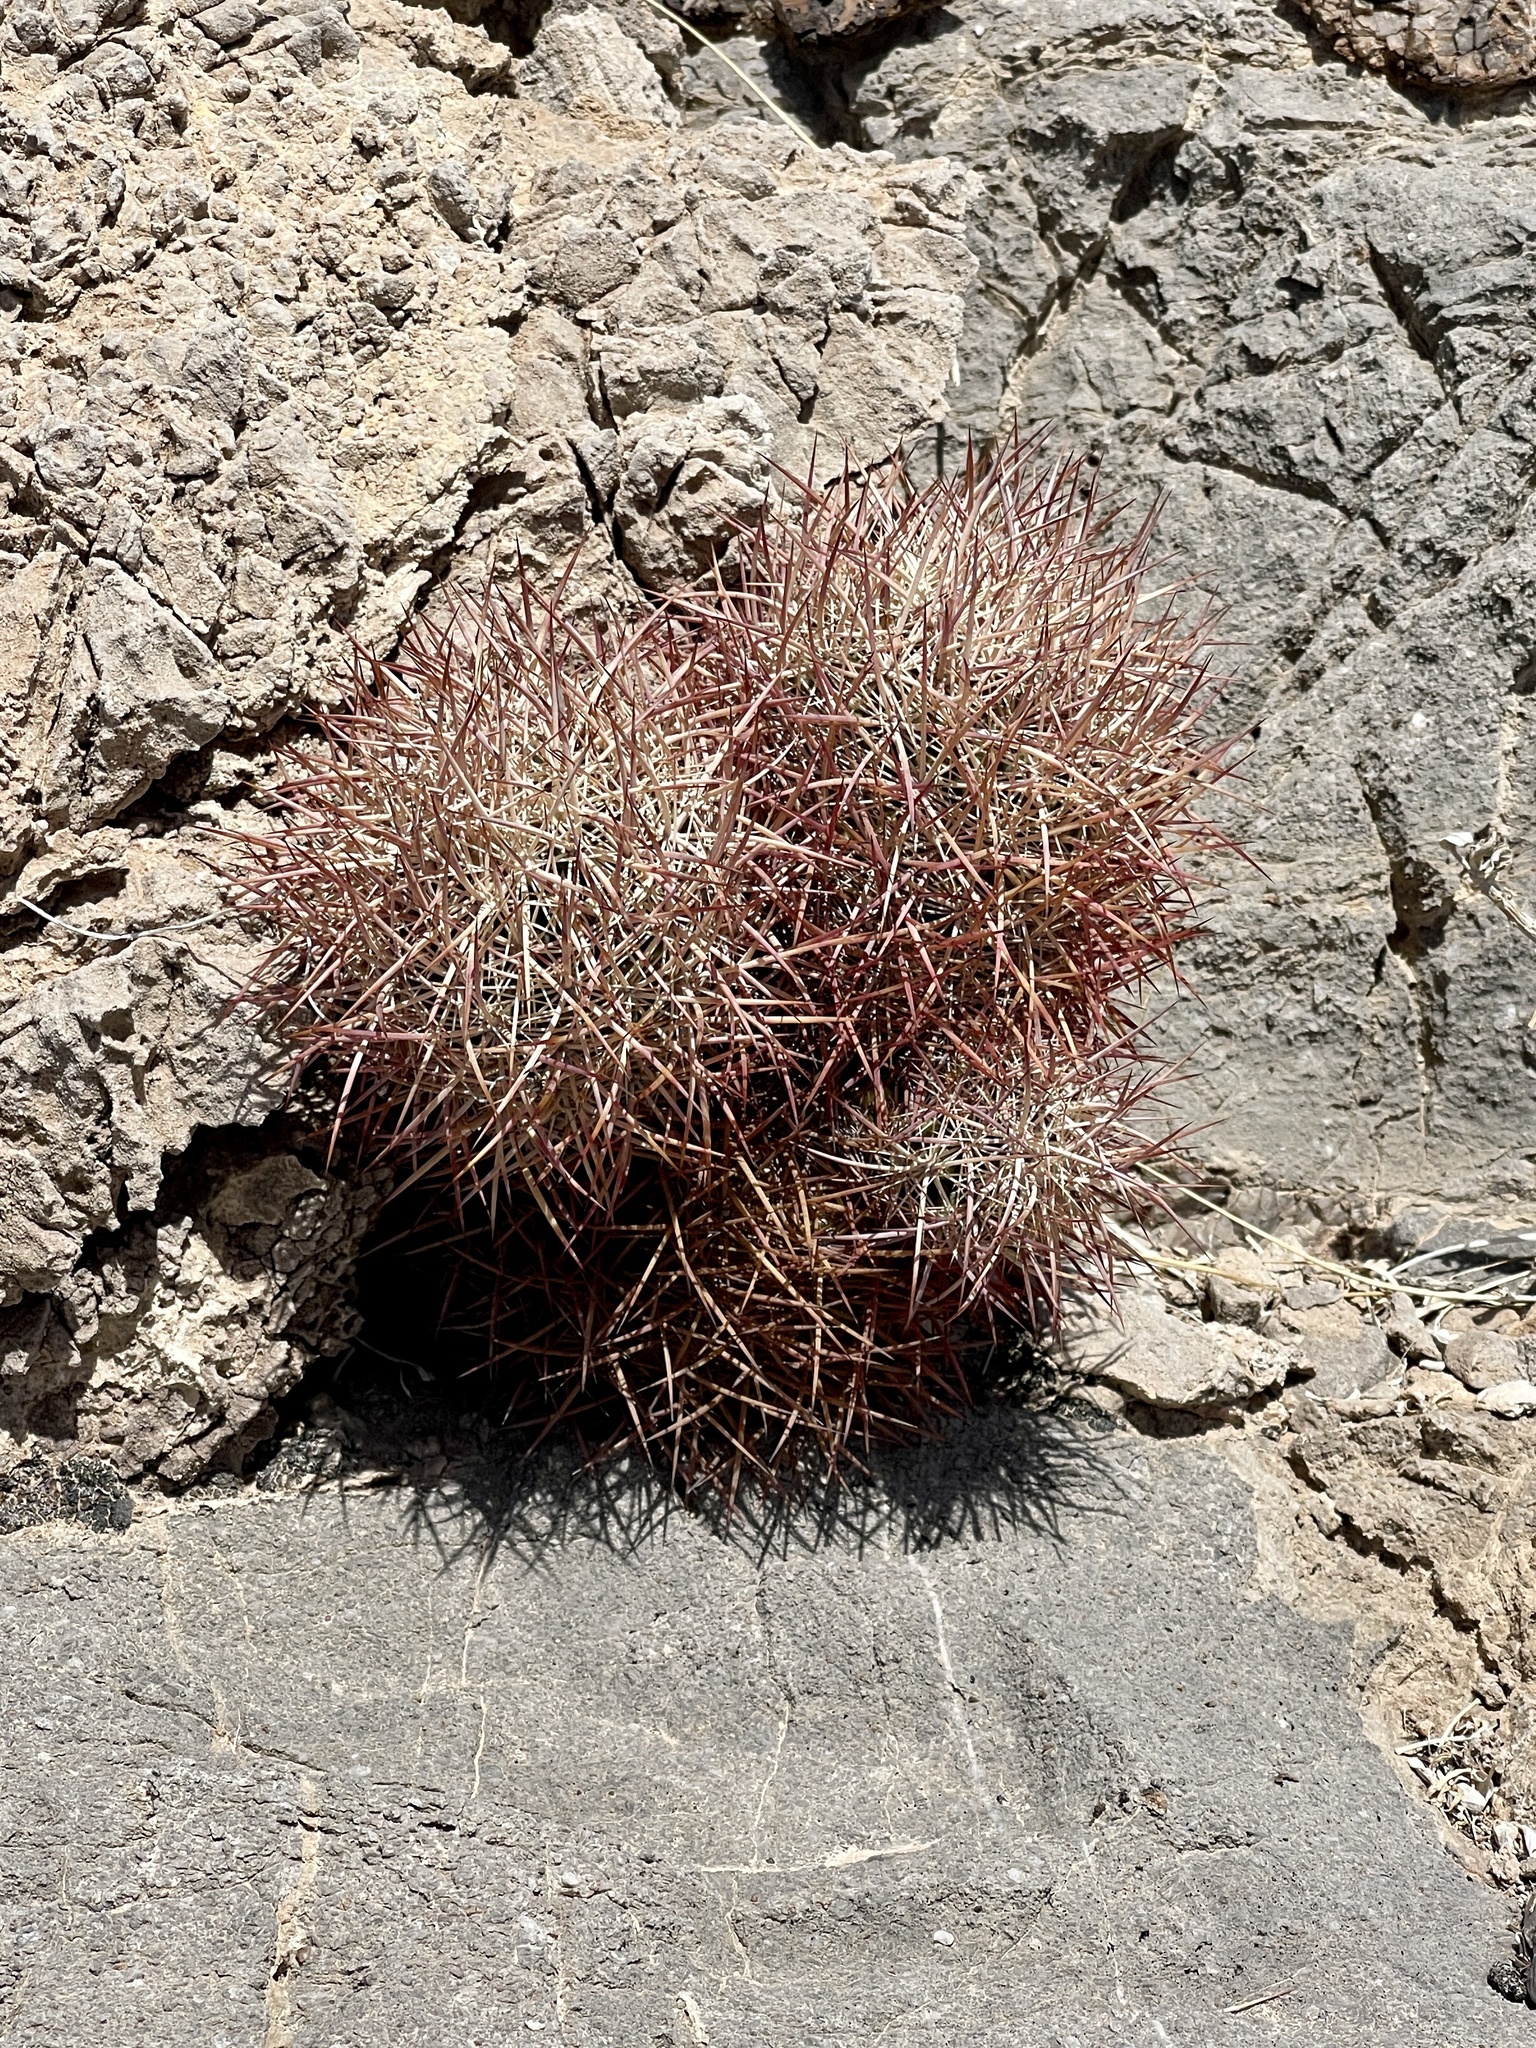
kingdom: Plantae
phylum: Tracheophyta
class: Magnoliopsida
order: Caryophyllales
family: Cactaceae
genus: Sclerocactus
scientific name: Sclerocactus johnsonii
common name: Eight-spine fishhook cactus
